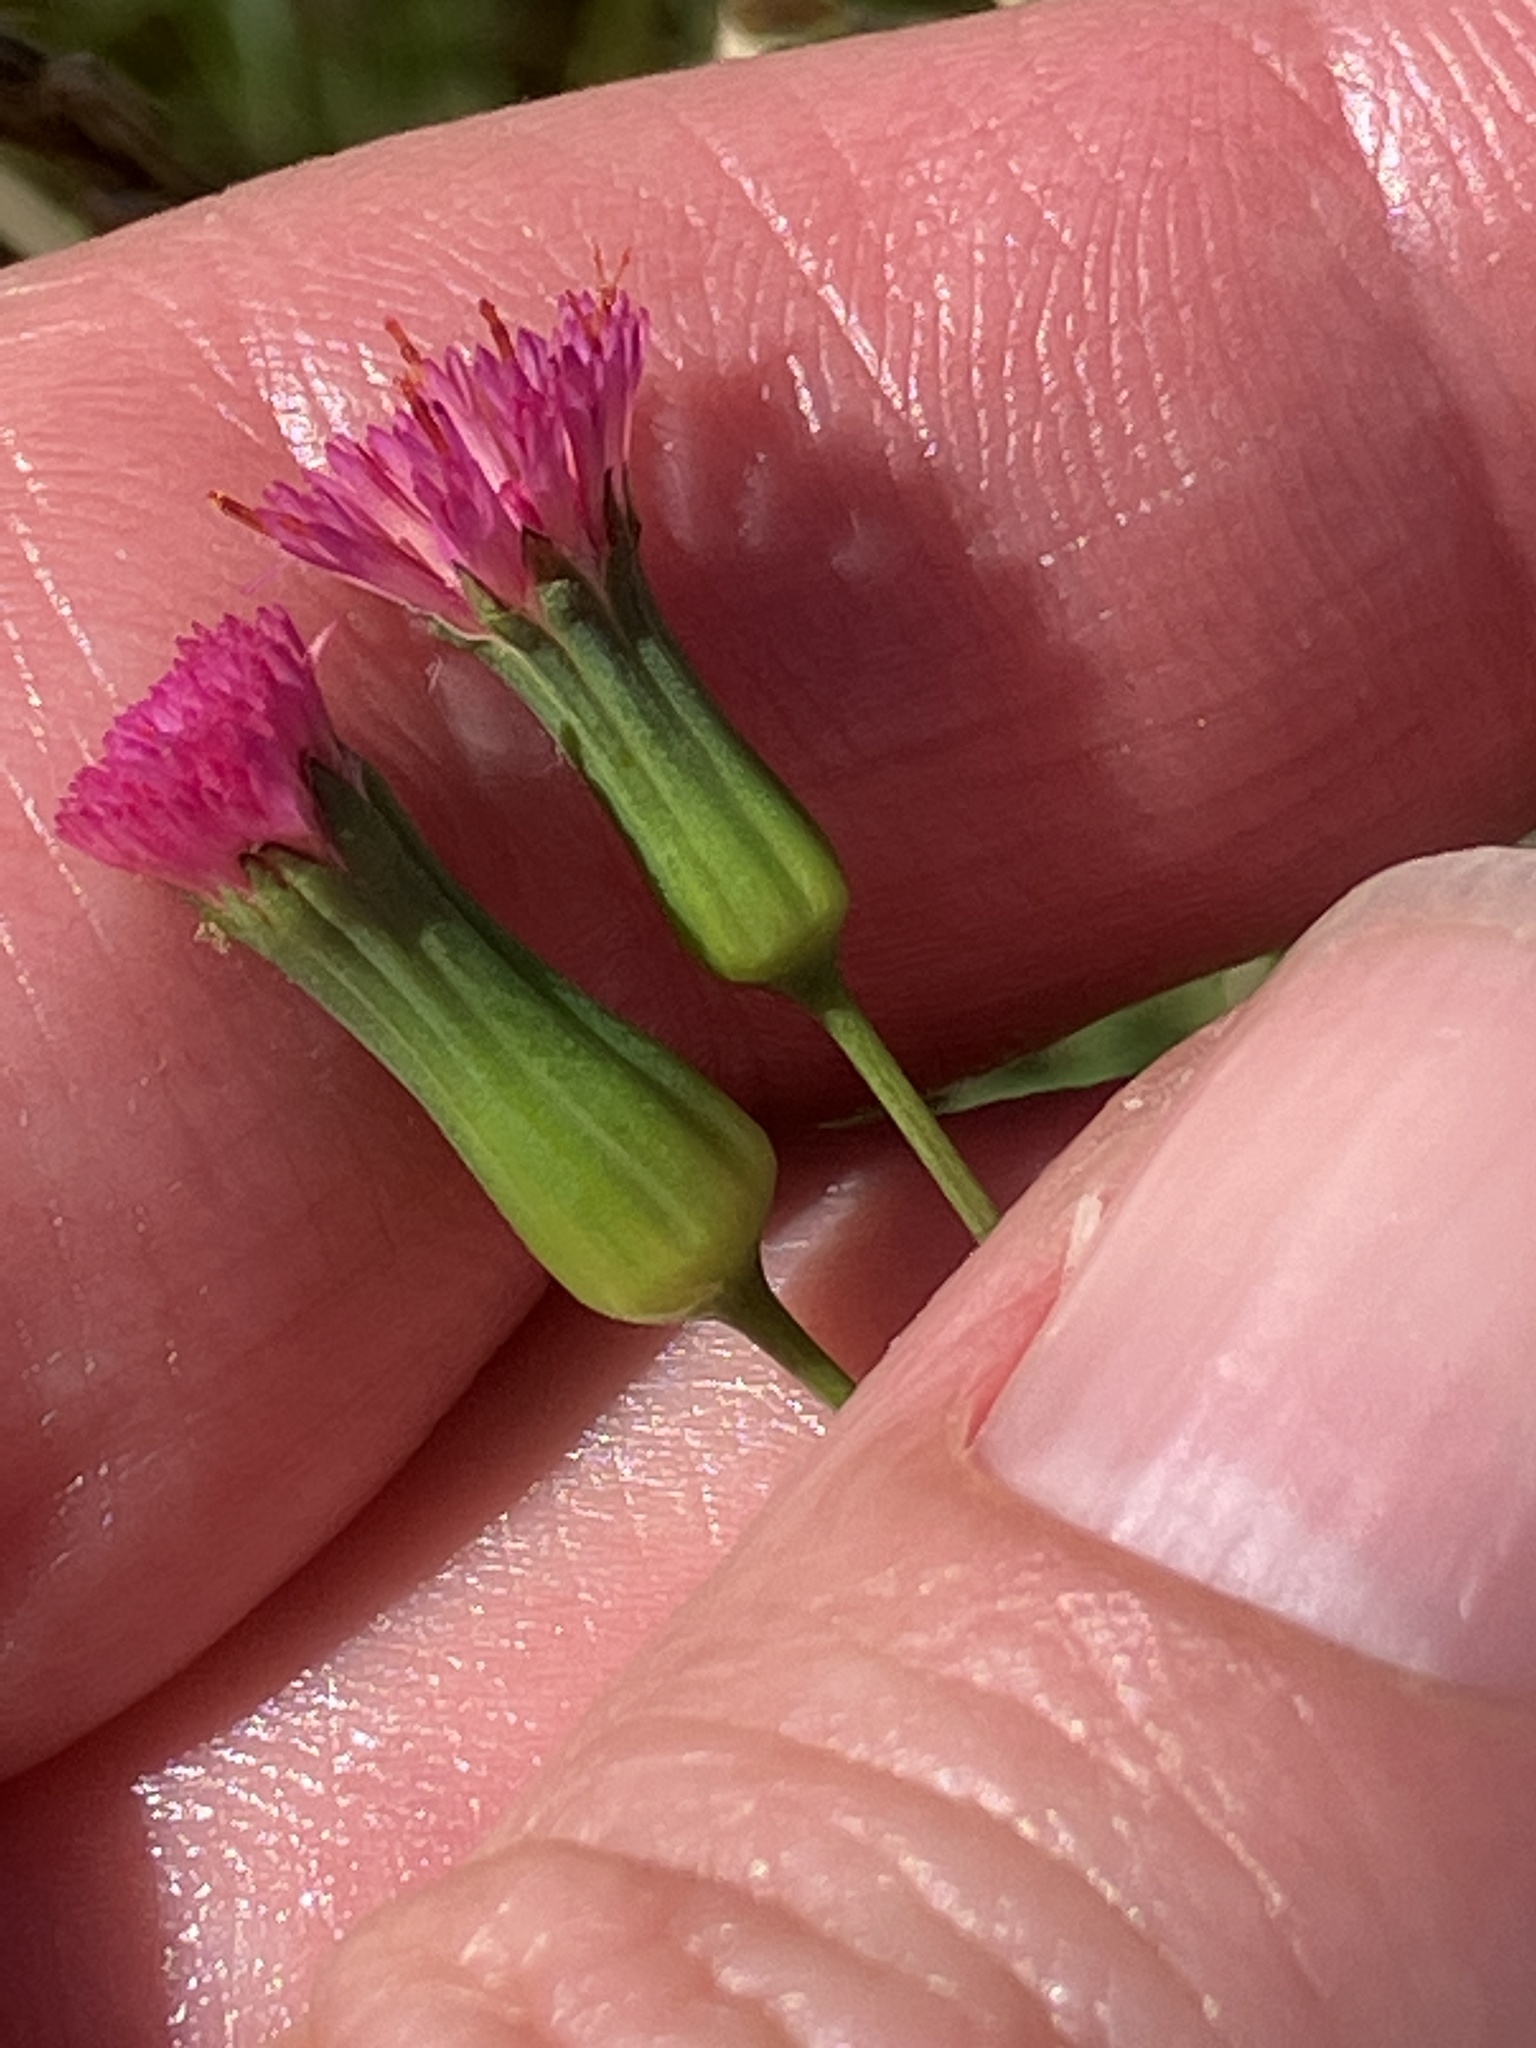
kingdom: Plantae
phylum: Tracheophyta
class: Magnoliopsida
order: Asterales
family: Asteraceae
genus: Emilia
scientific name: Emilia fosbergii
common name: Florida tasselflower
